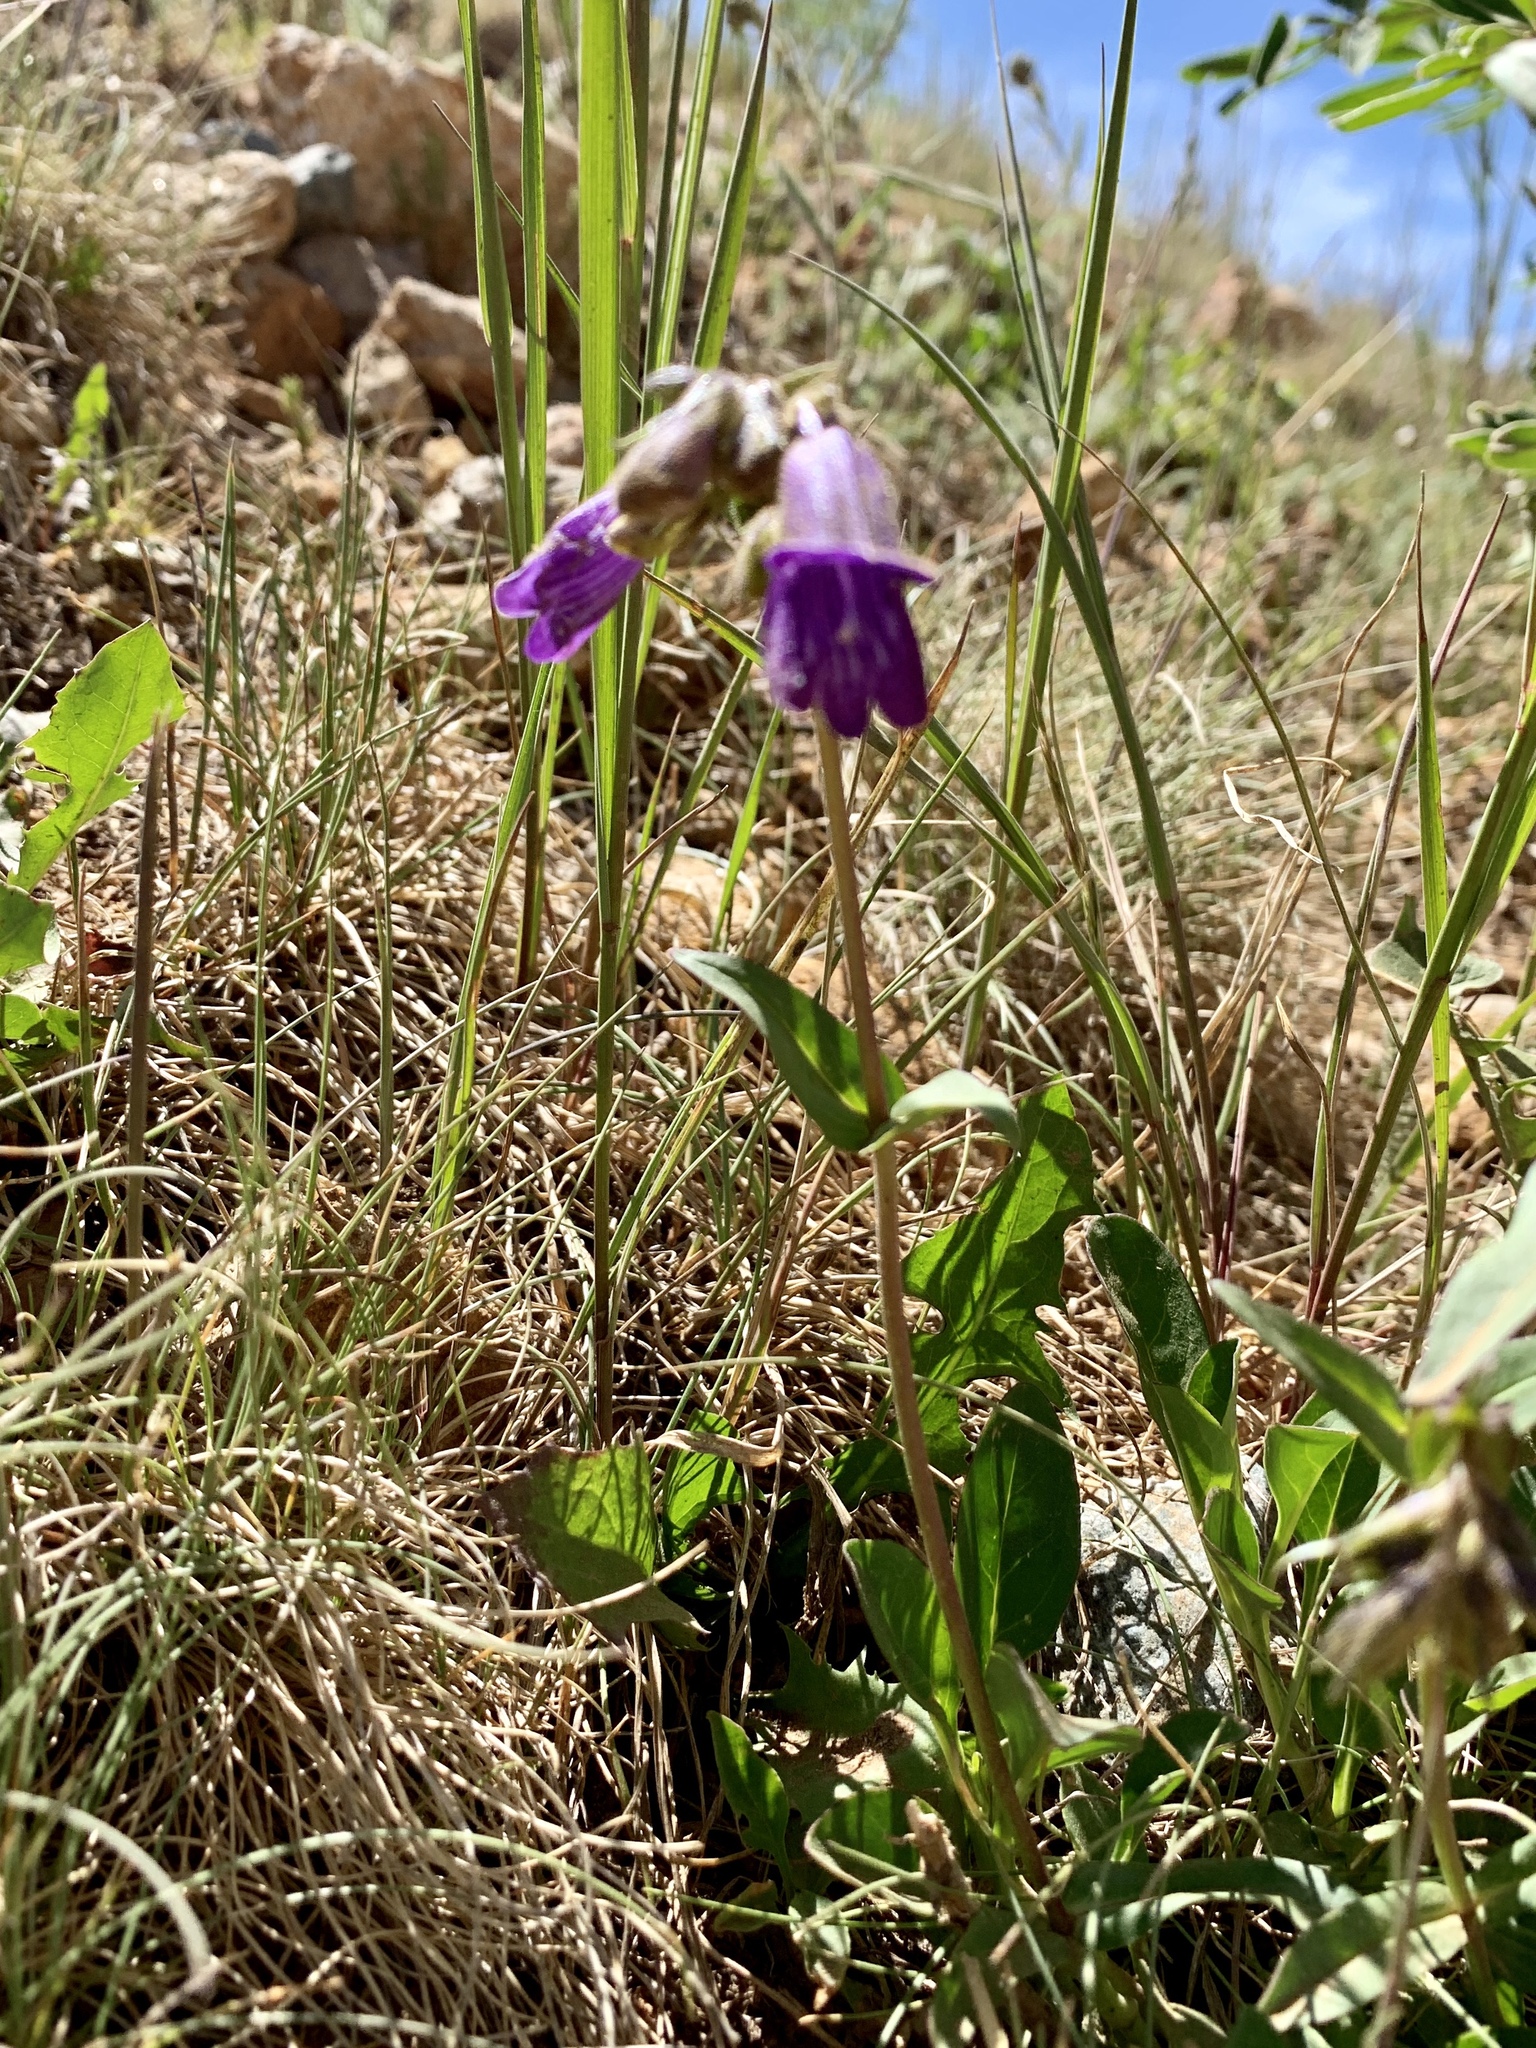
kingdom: Plantae
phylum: Tracheophyta
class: Magnoliopsida
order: Lamiales
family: Plantaginaceae
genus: Penstemon
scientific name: Penstemon whippleanus
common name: Whipple's penstemon
